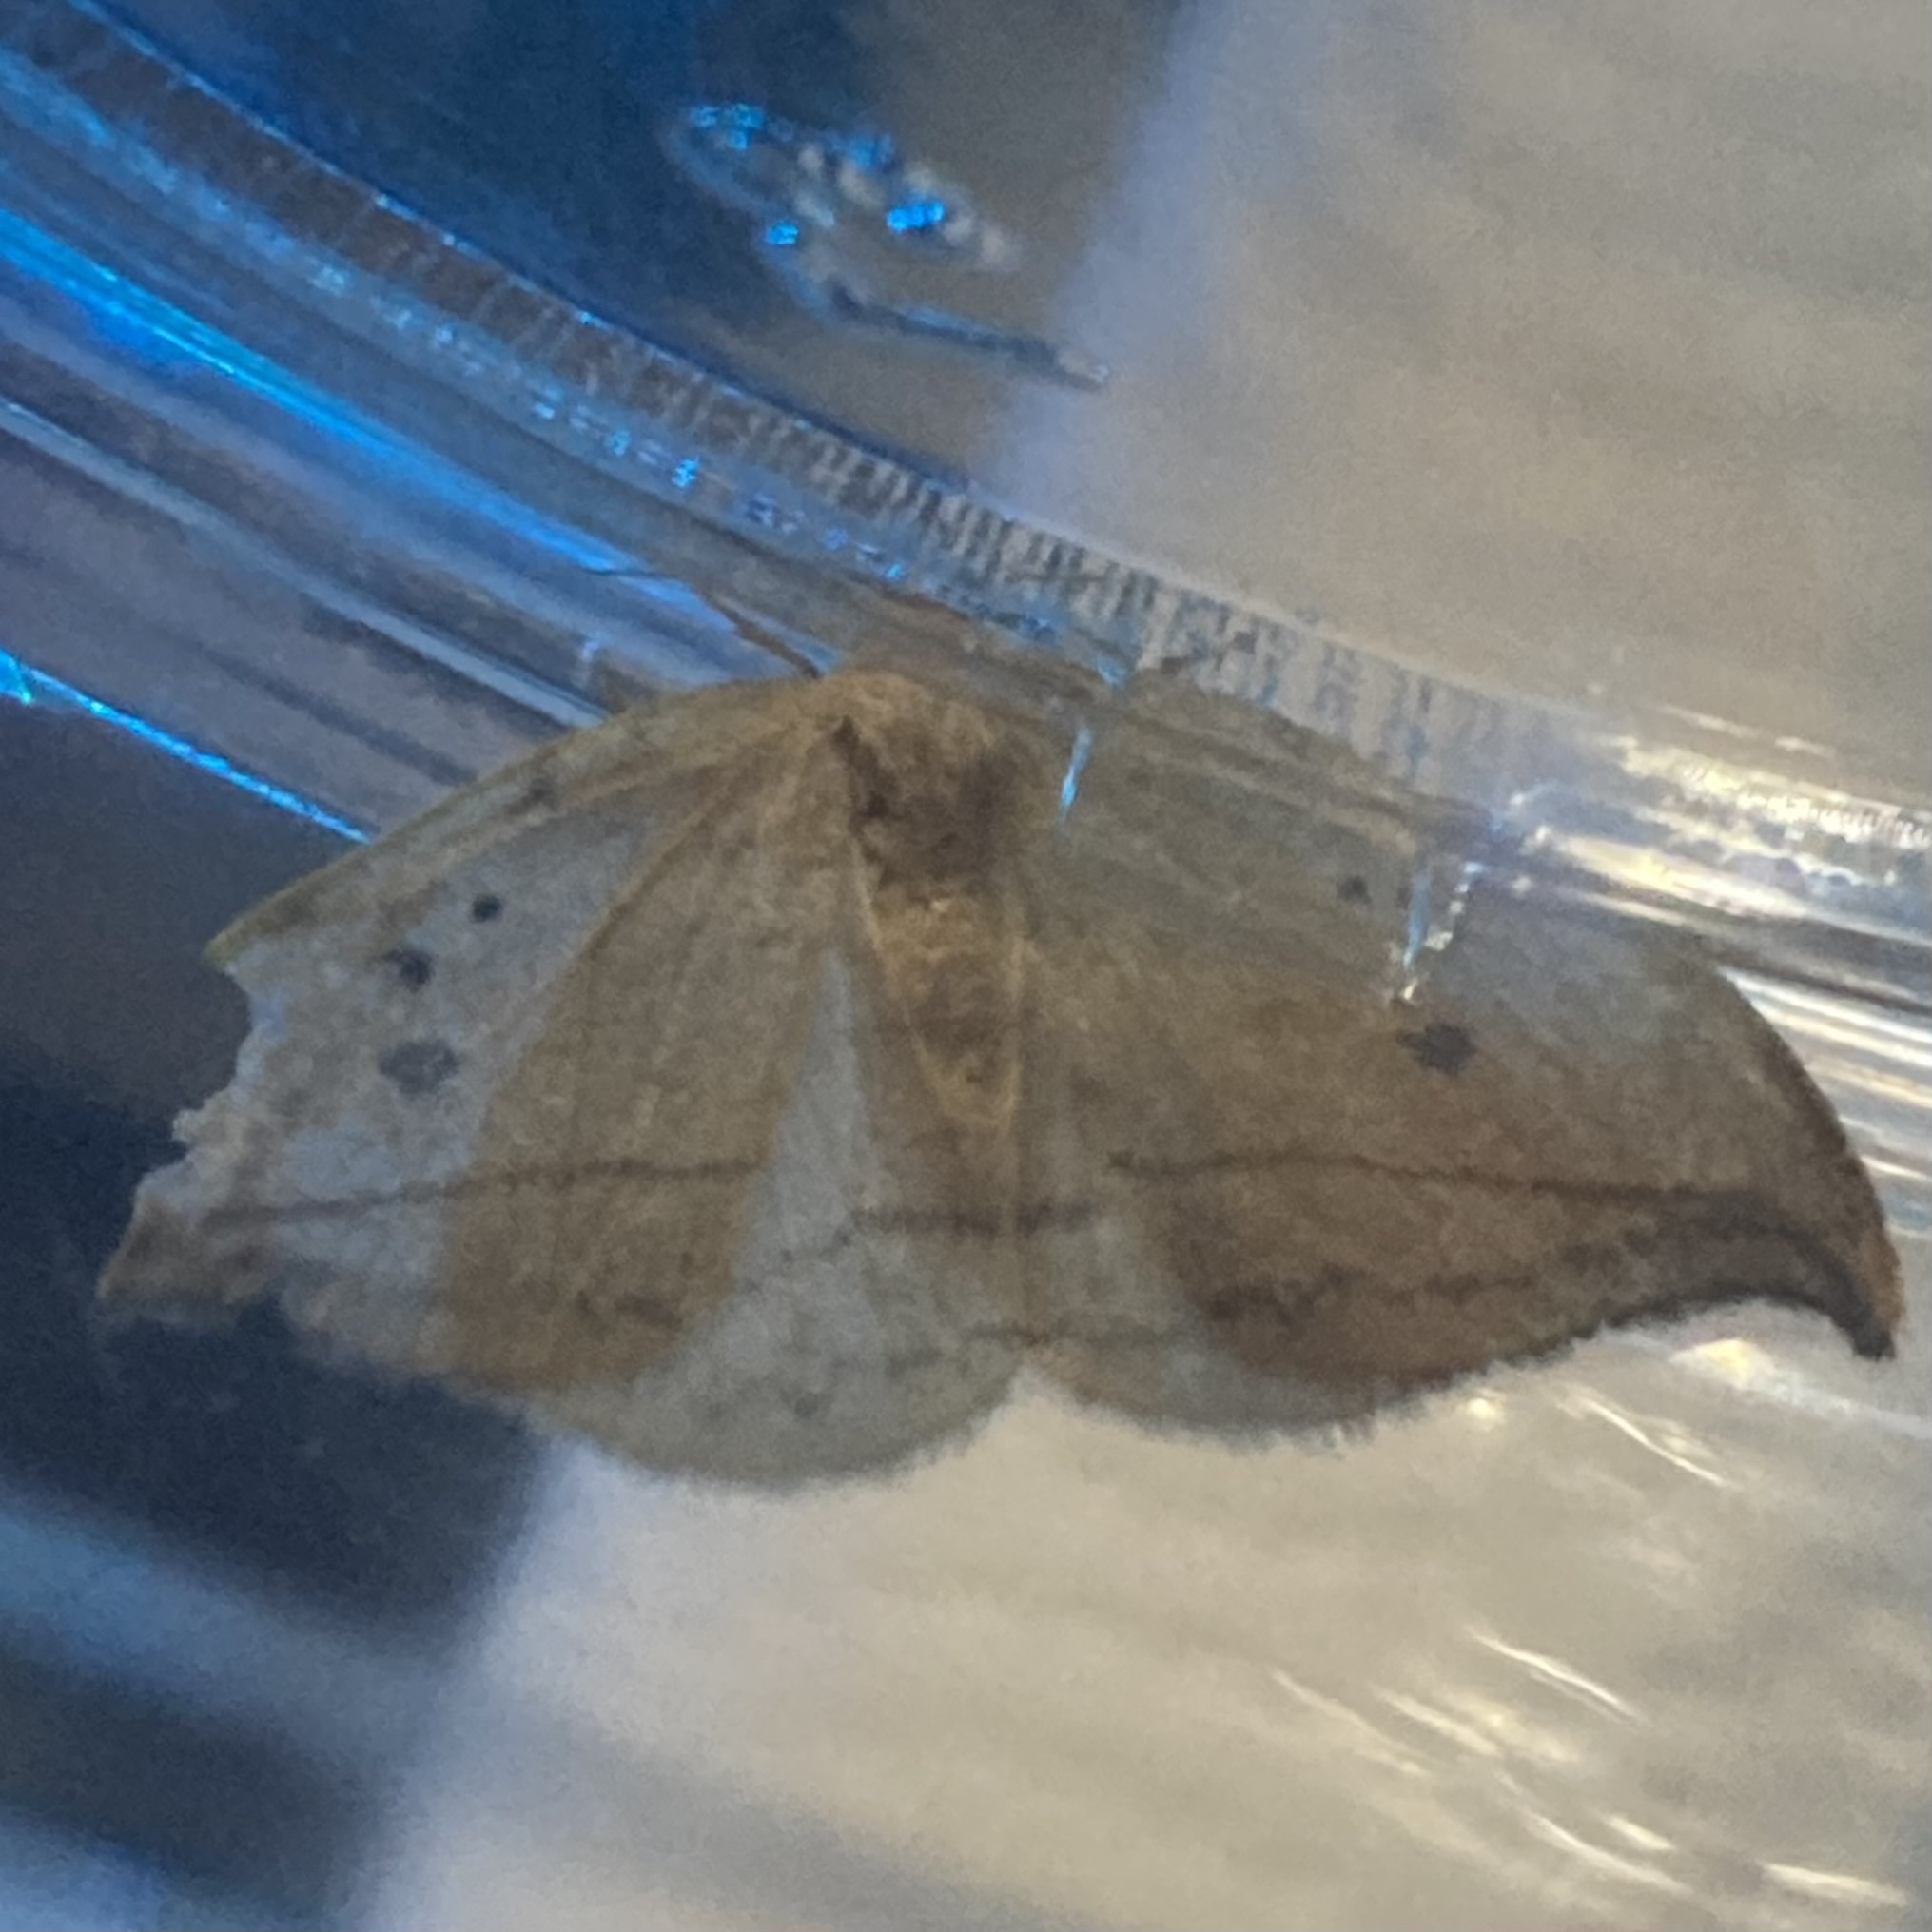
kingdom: Animalia
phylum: Arthropoda
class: Insecta
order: Lepidoptera
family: Drepanidae
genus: Drepana
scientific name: Drepana arcuata
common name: Arched hooktip moth
